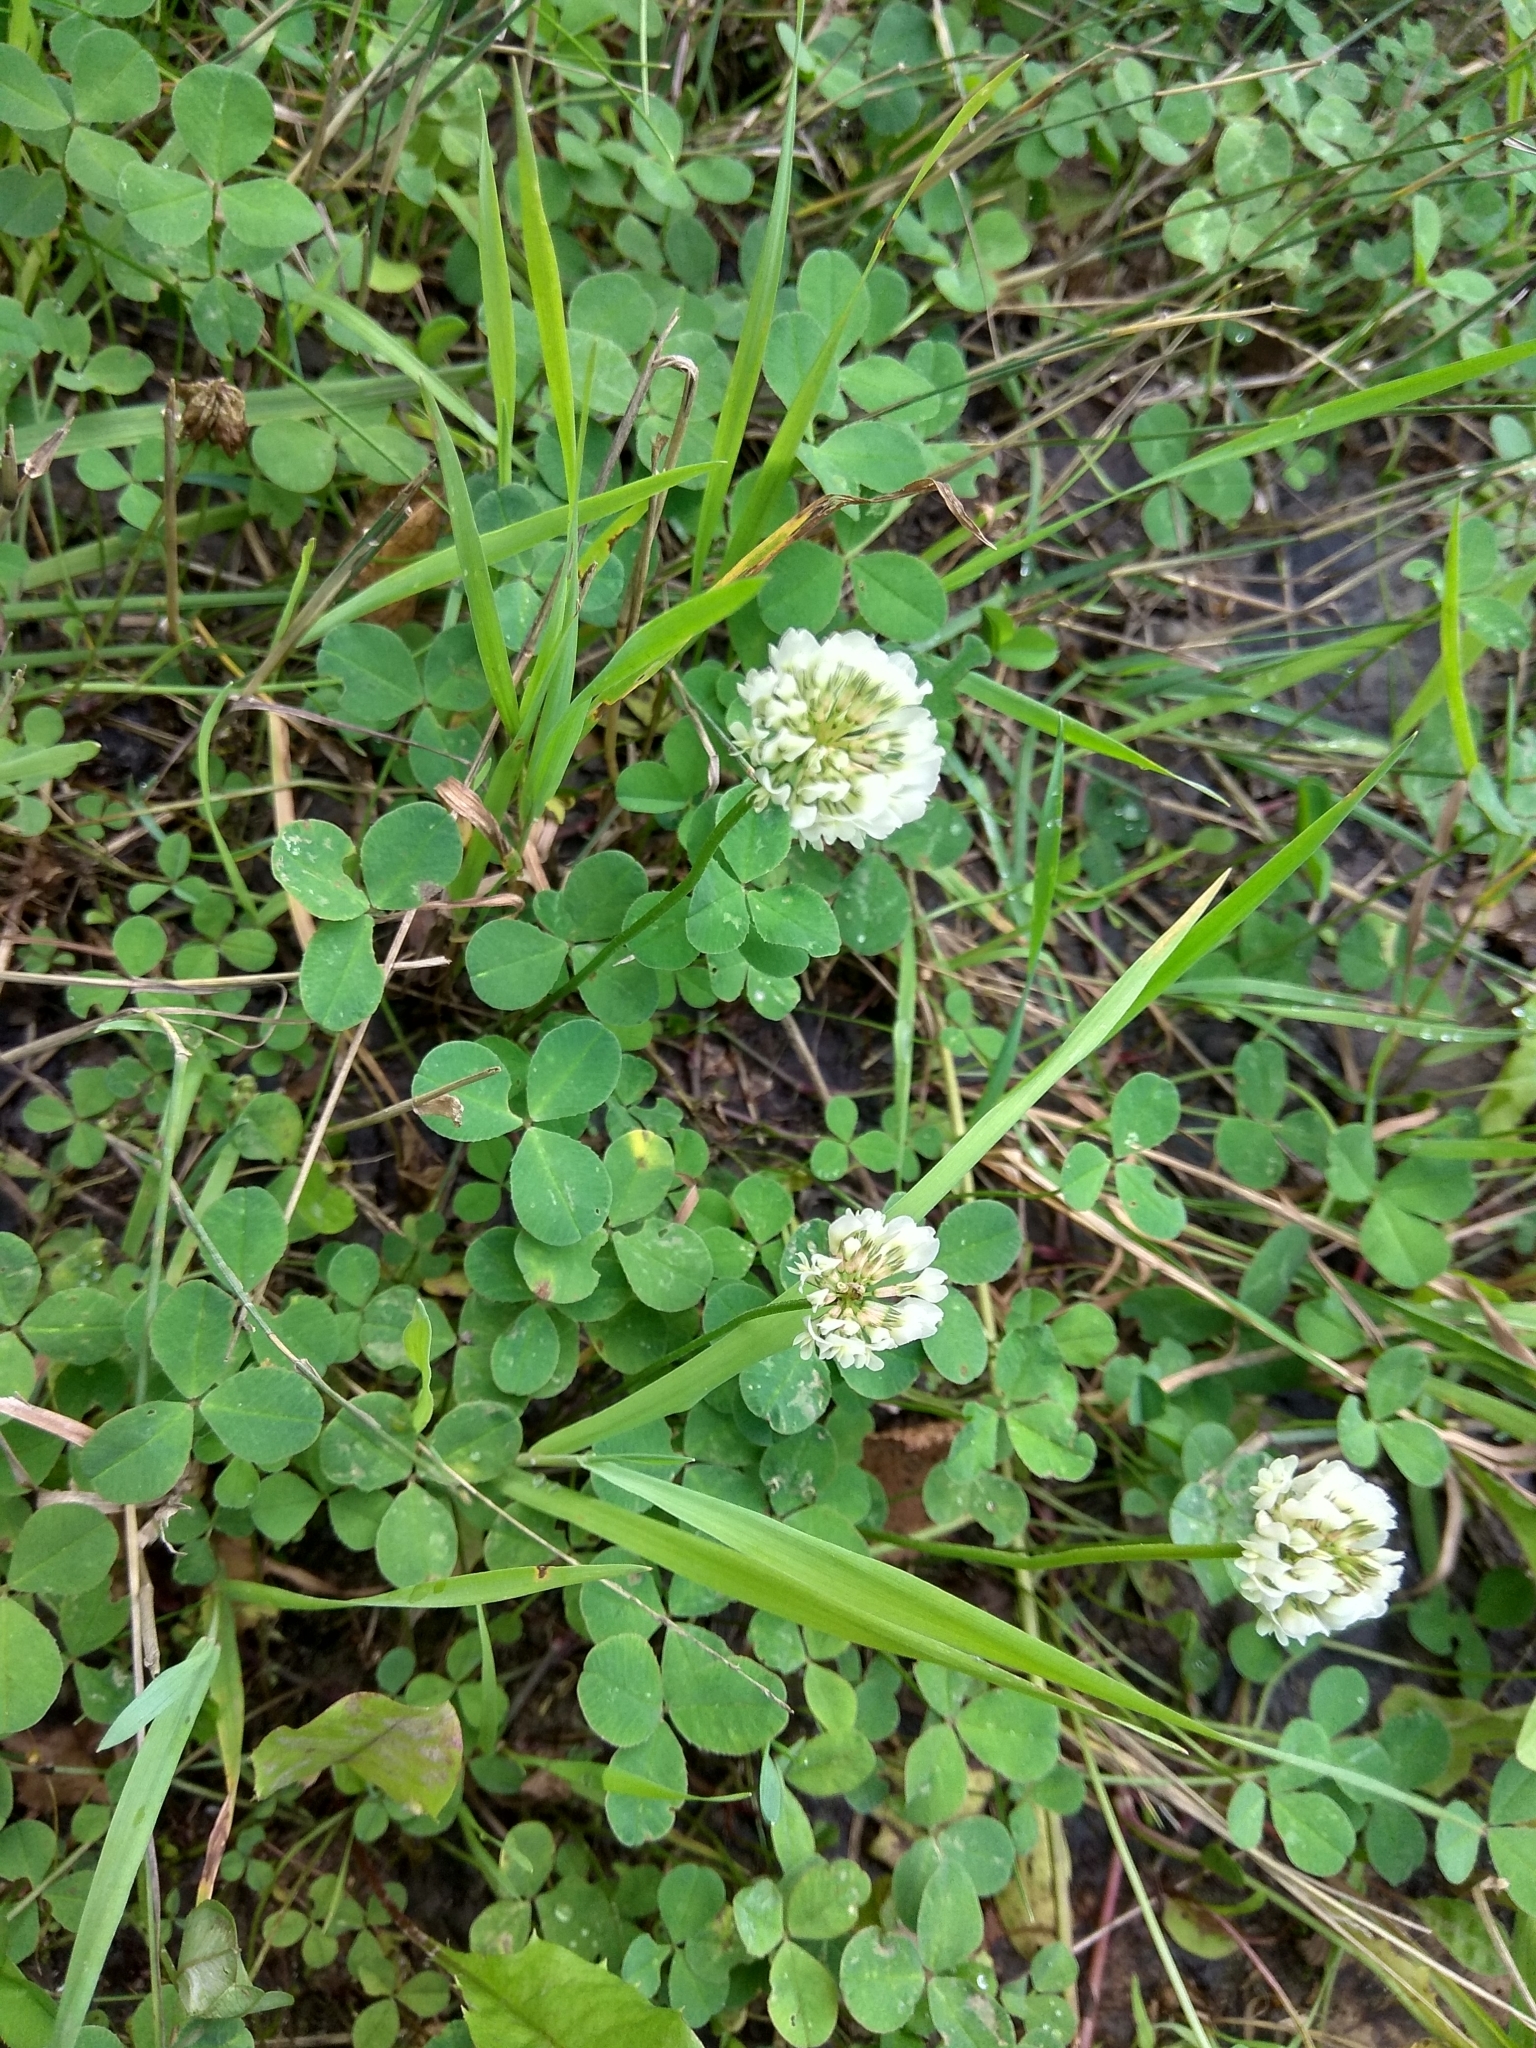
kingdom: Plantae
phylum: Tracheophyta
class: Magnoliopsida
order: Fabales
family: Fabaceae
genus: Trifolium
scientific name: Trifolium repens
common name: White clover
